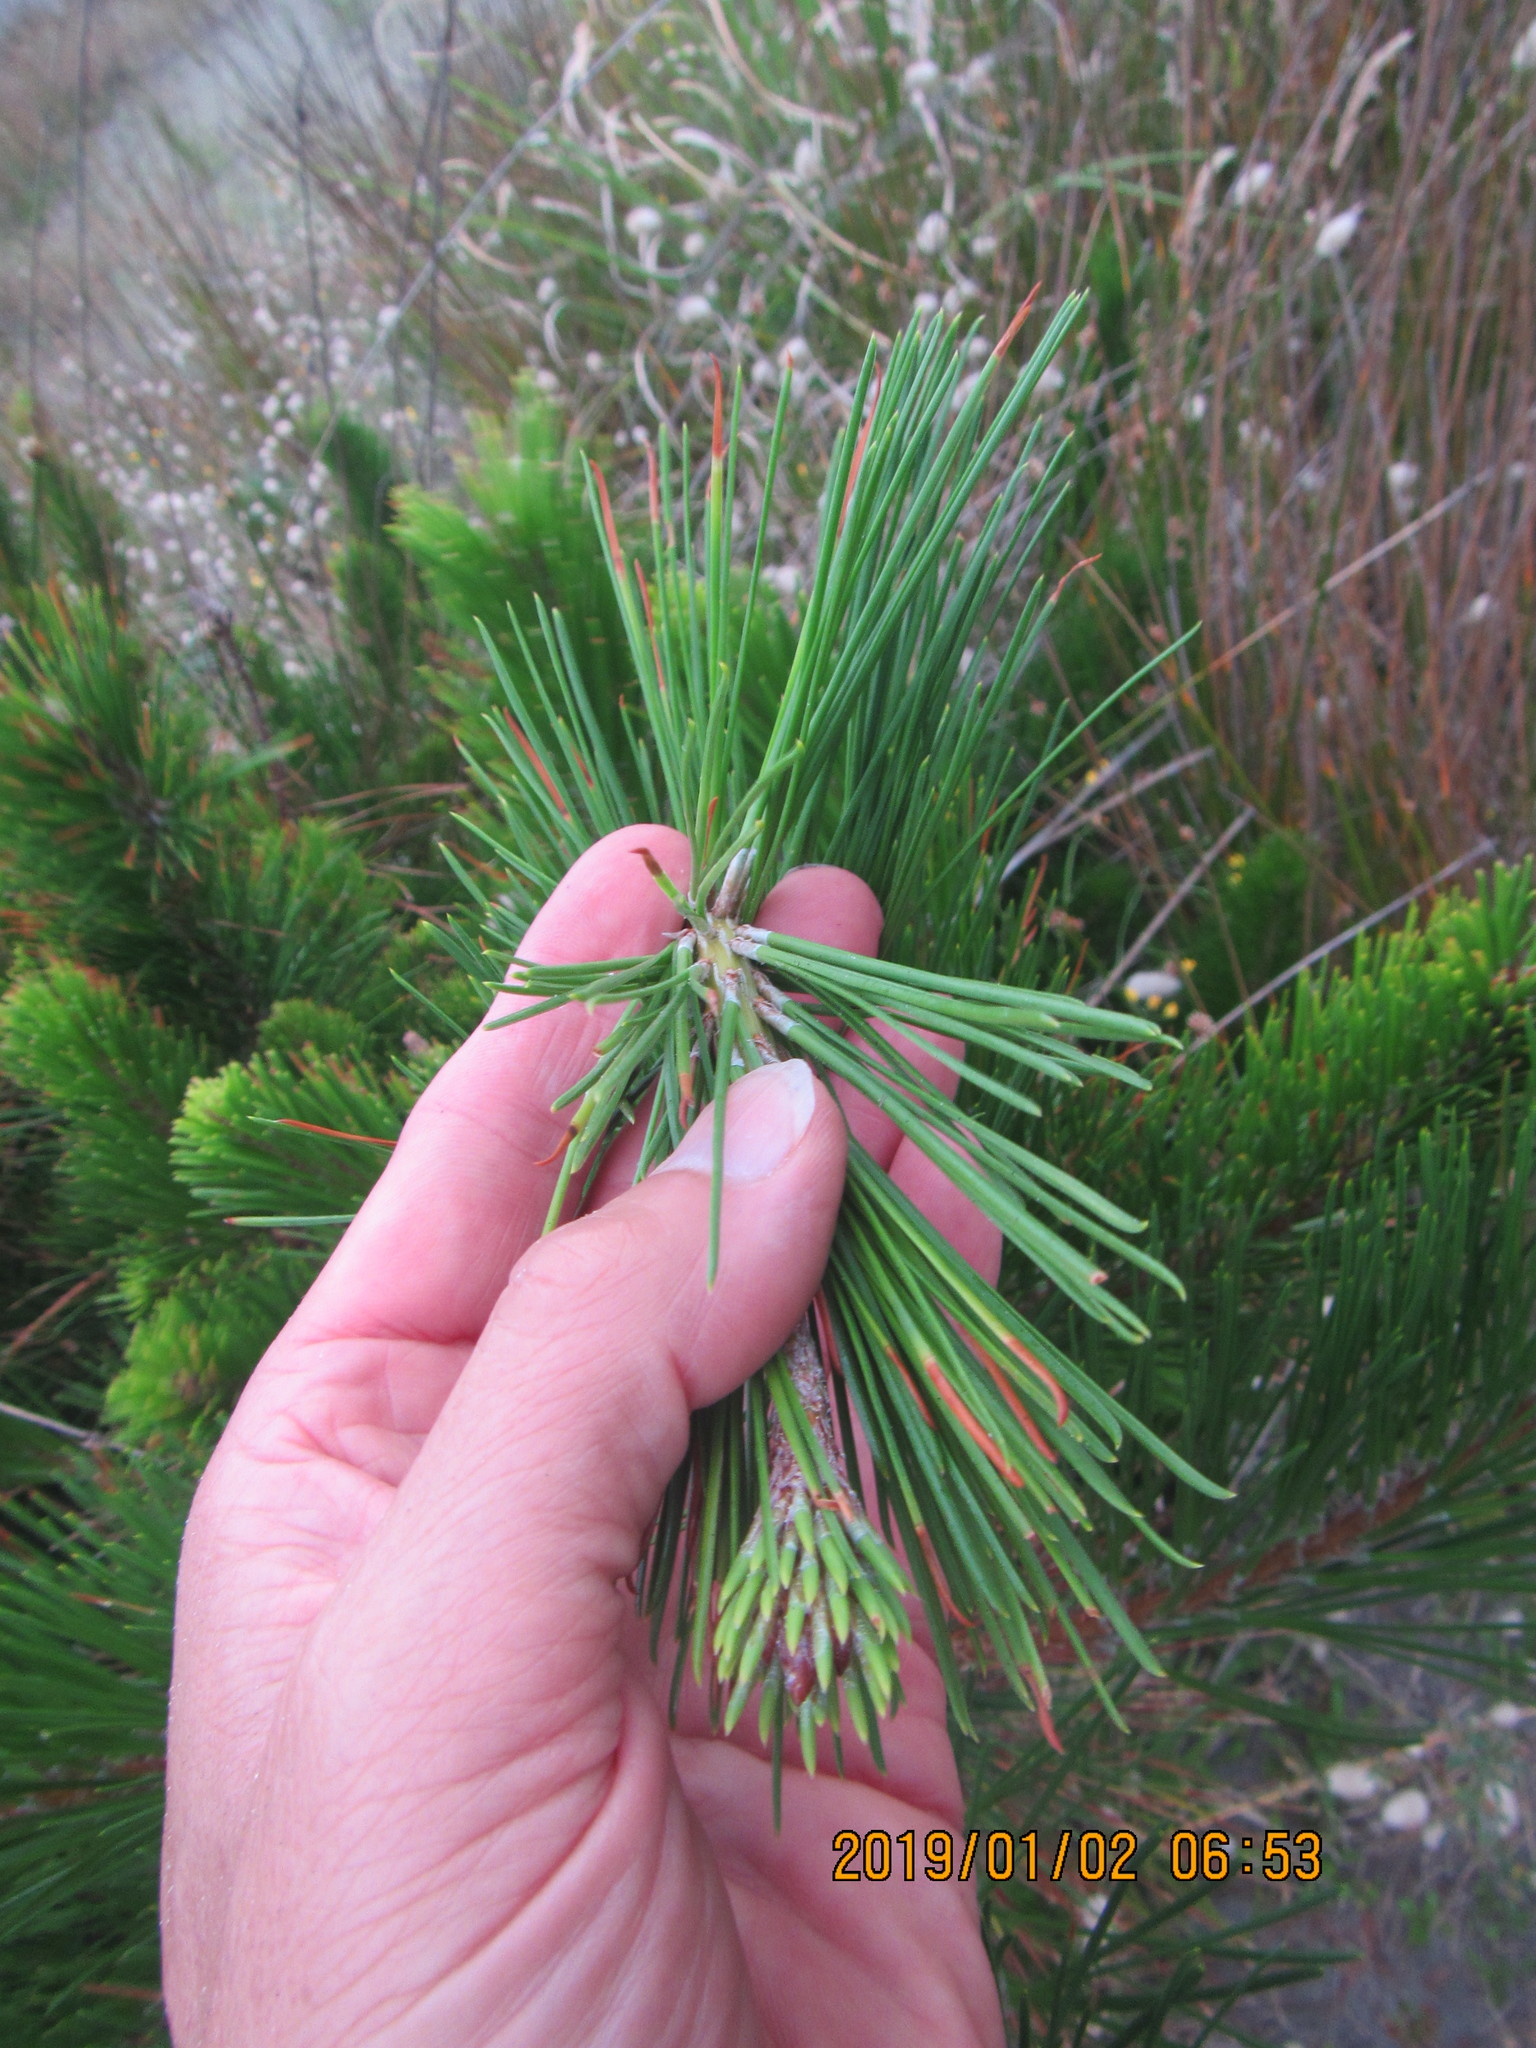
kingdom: Plantae
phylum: Tracheophyta
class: Pinopsida
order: Pinales
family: Pinaceae
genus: Pinus
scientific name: Pinus radiata
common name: Monterey pine
